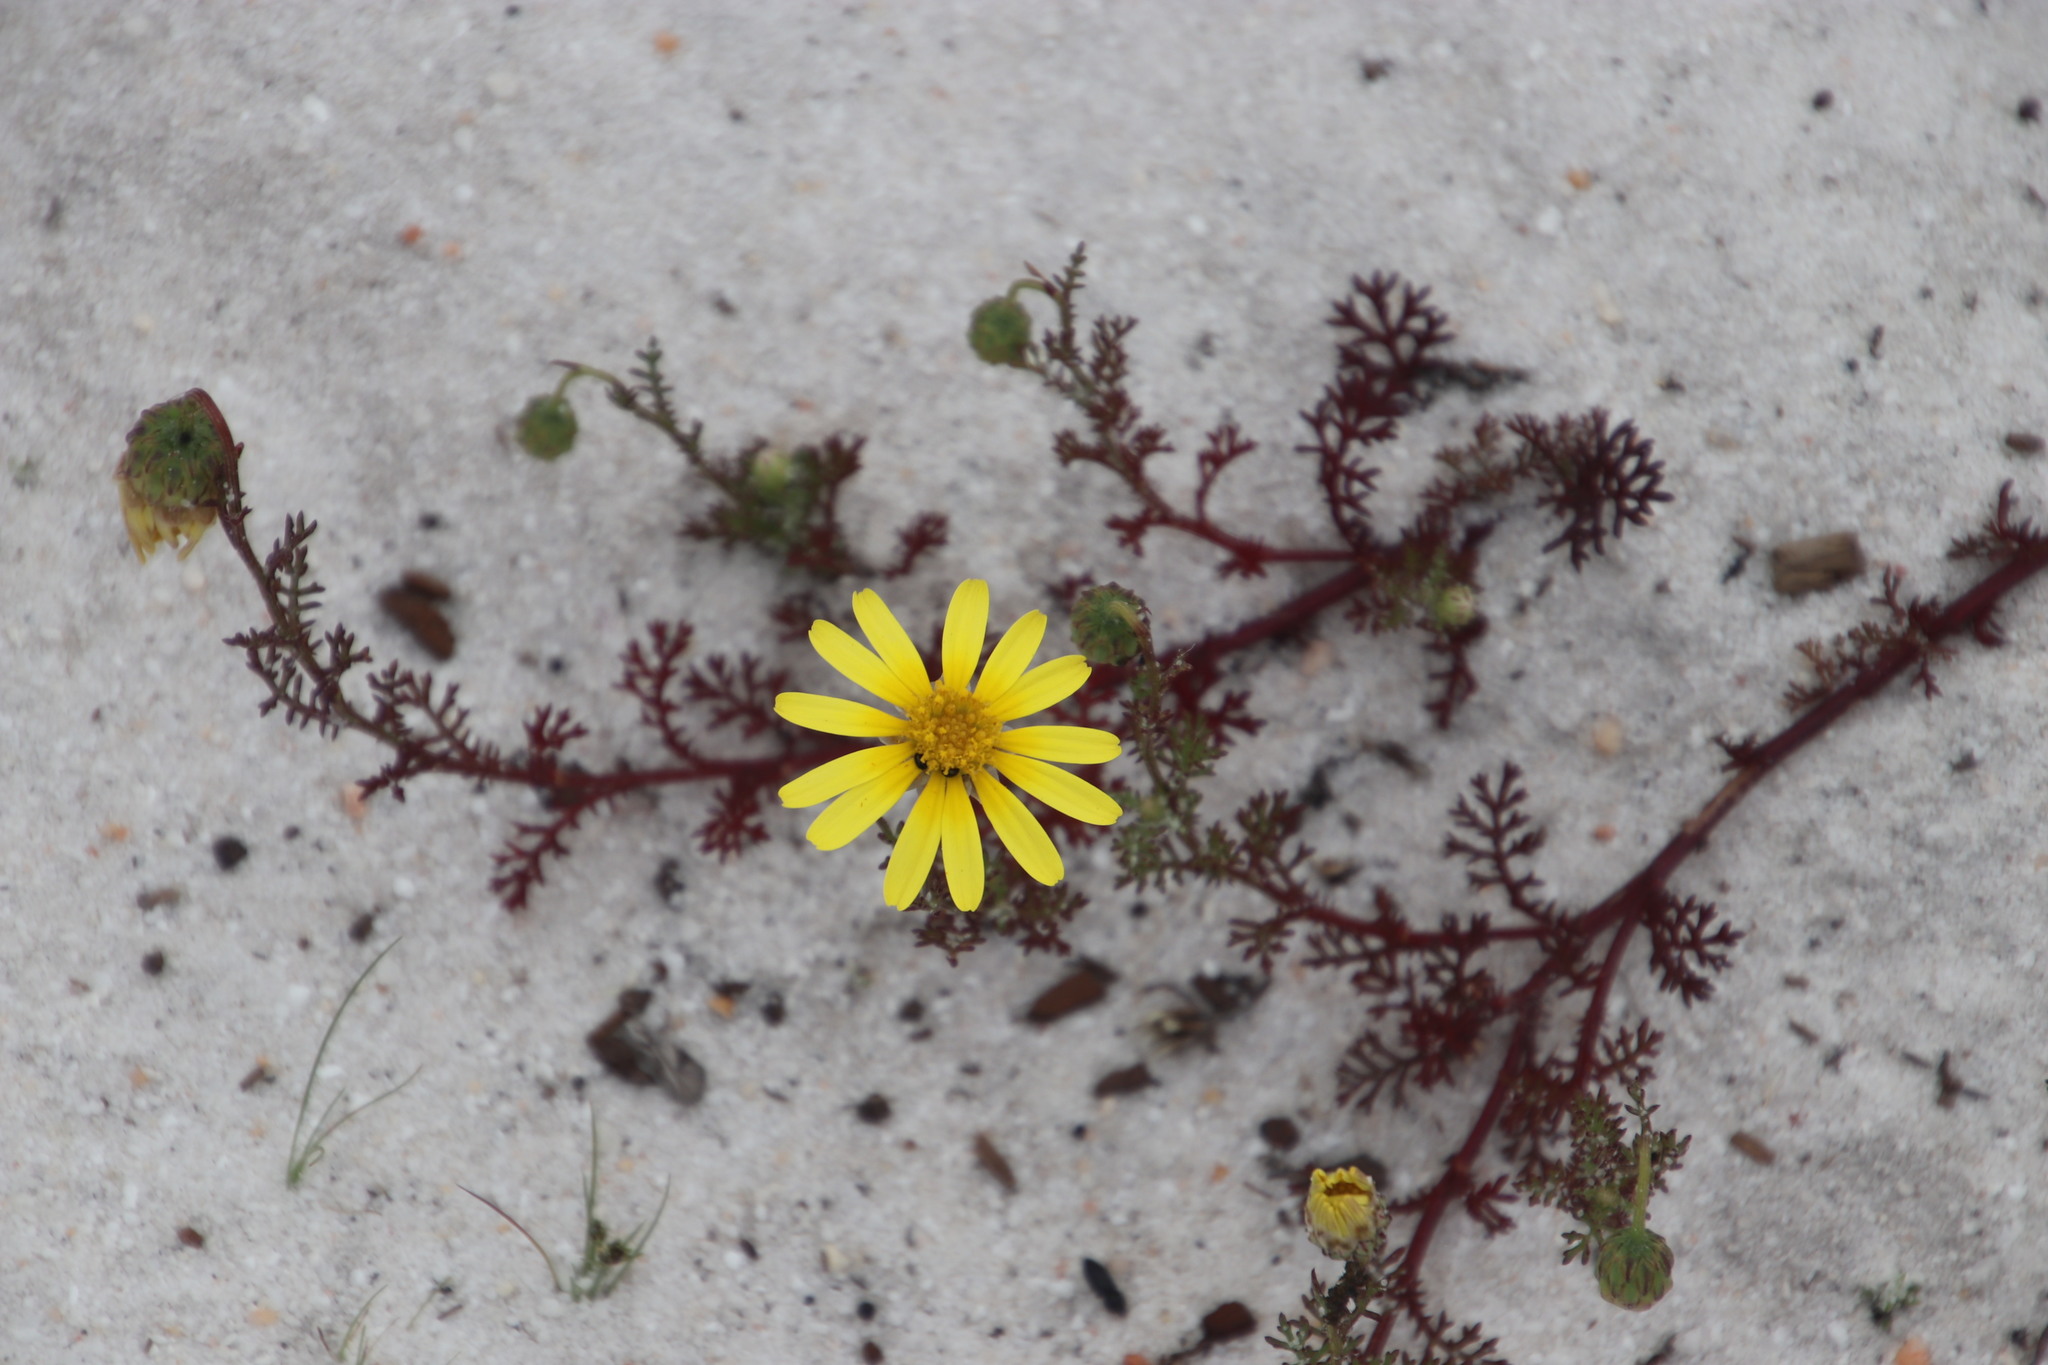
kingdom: Plantae
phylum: Tracheophyta
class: Magnoliopsida
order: Asterales
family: Asteraceae
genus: Ursinia
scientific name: Ursinia anthemoides
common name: Ursinia
